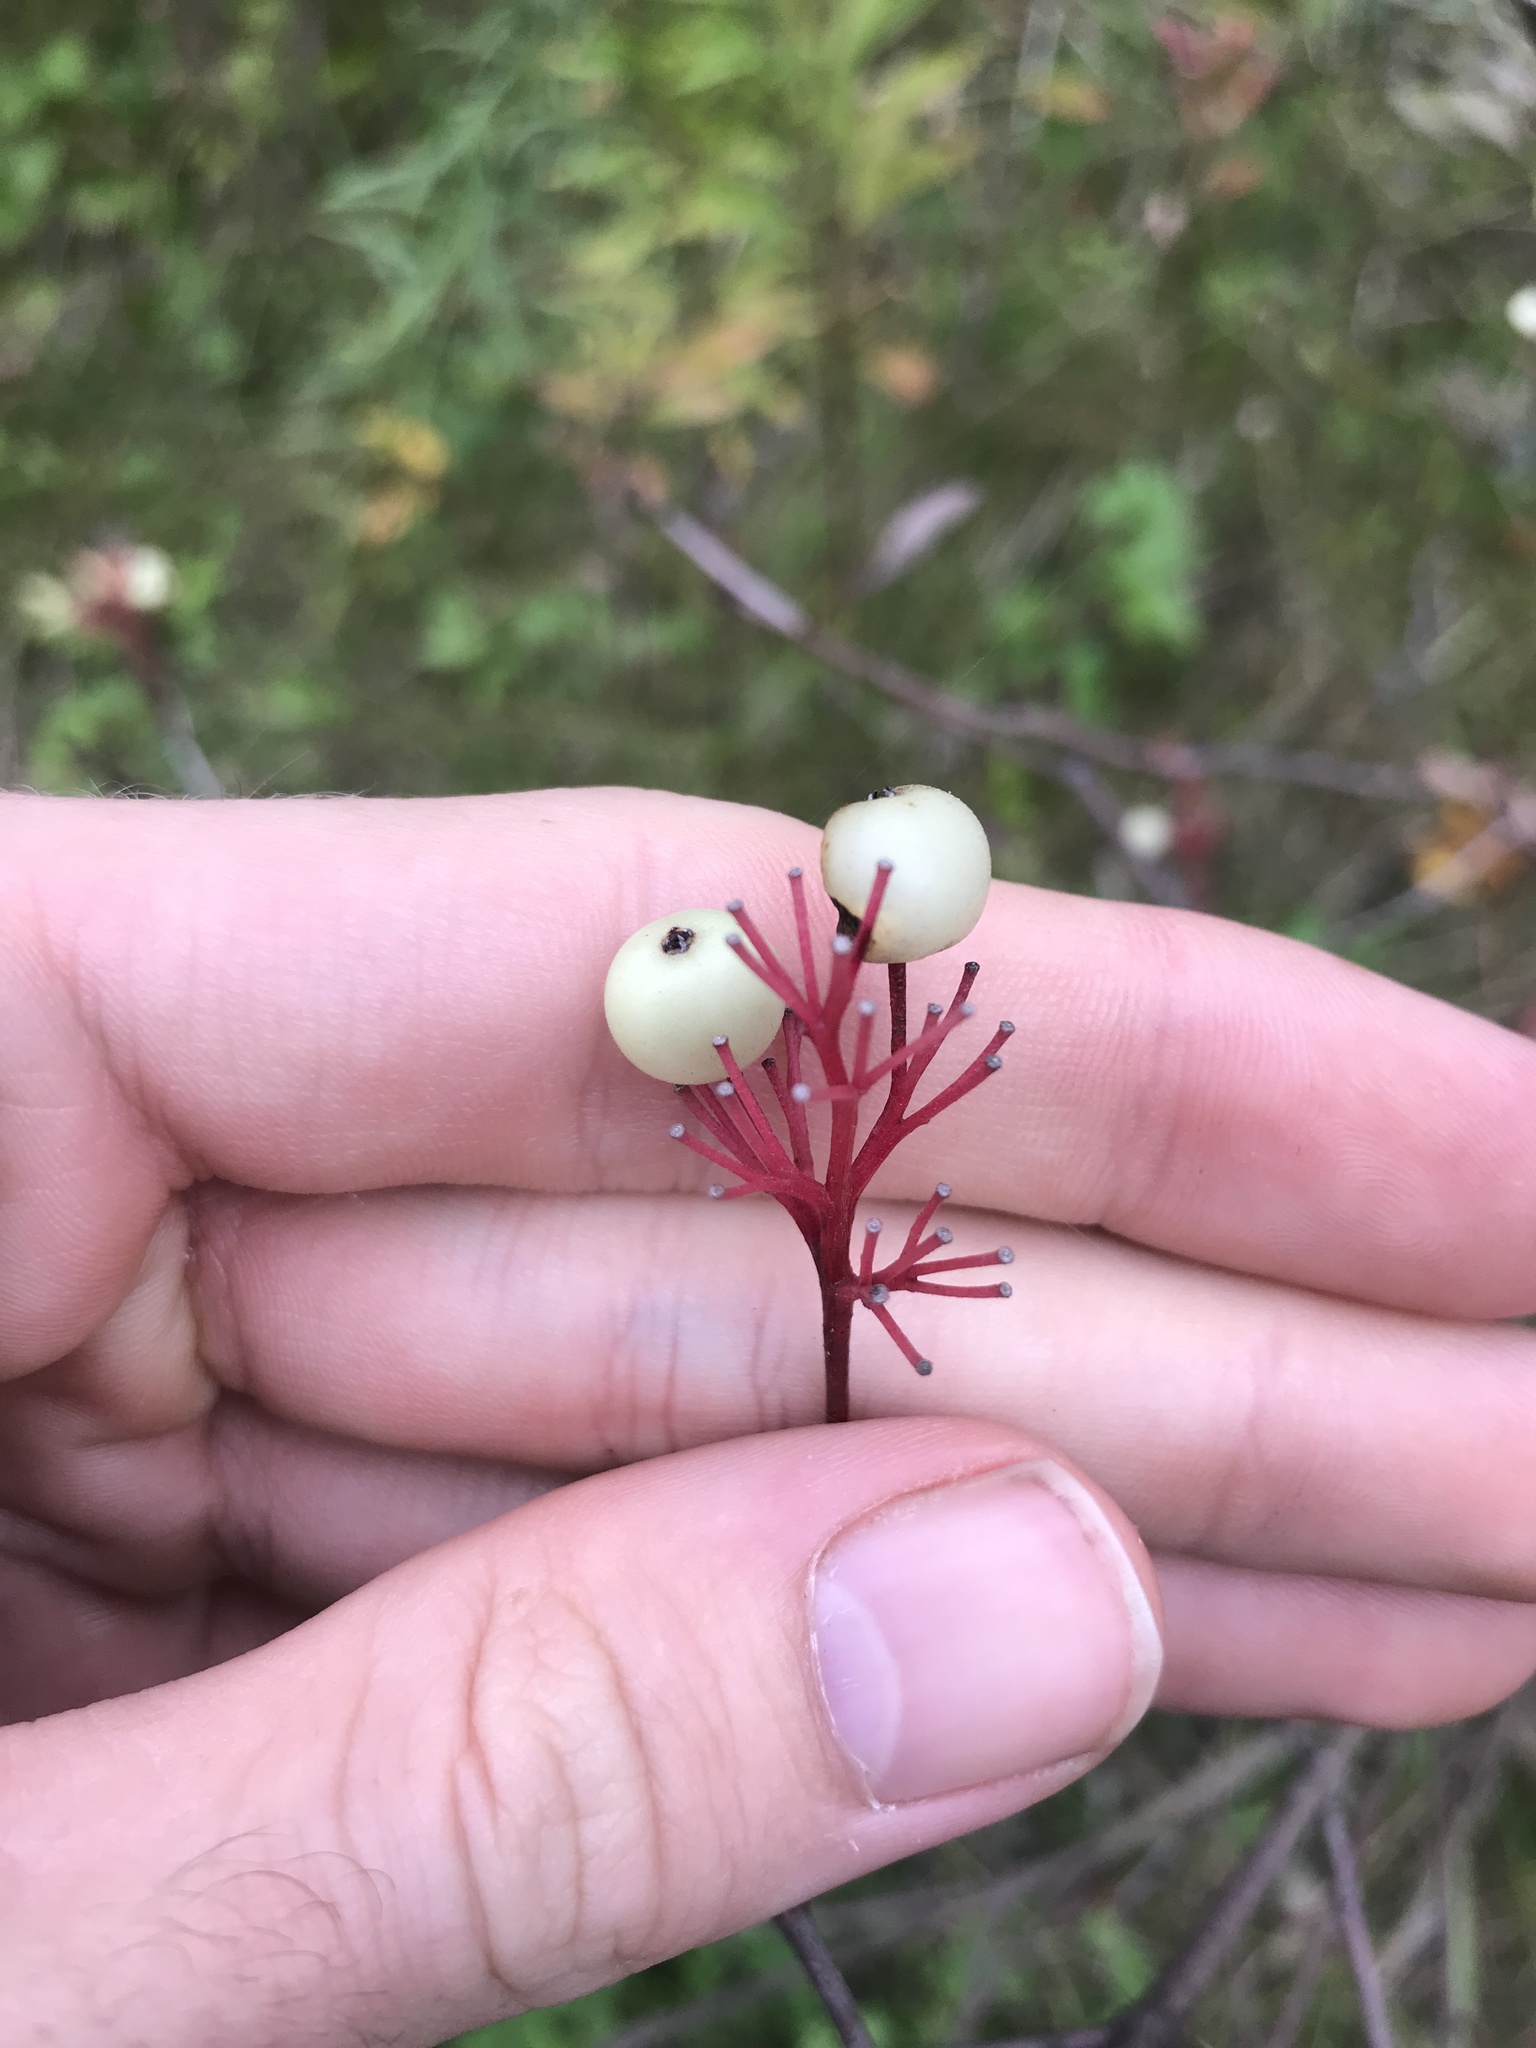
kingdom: Plantae
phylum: Tracheophyta
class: Magnoliopsida
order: Cornales
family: Cornaceae
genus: Cornus
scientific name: Cornus racemosa
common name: Panicled dogwood
